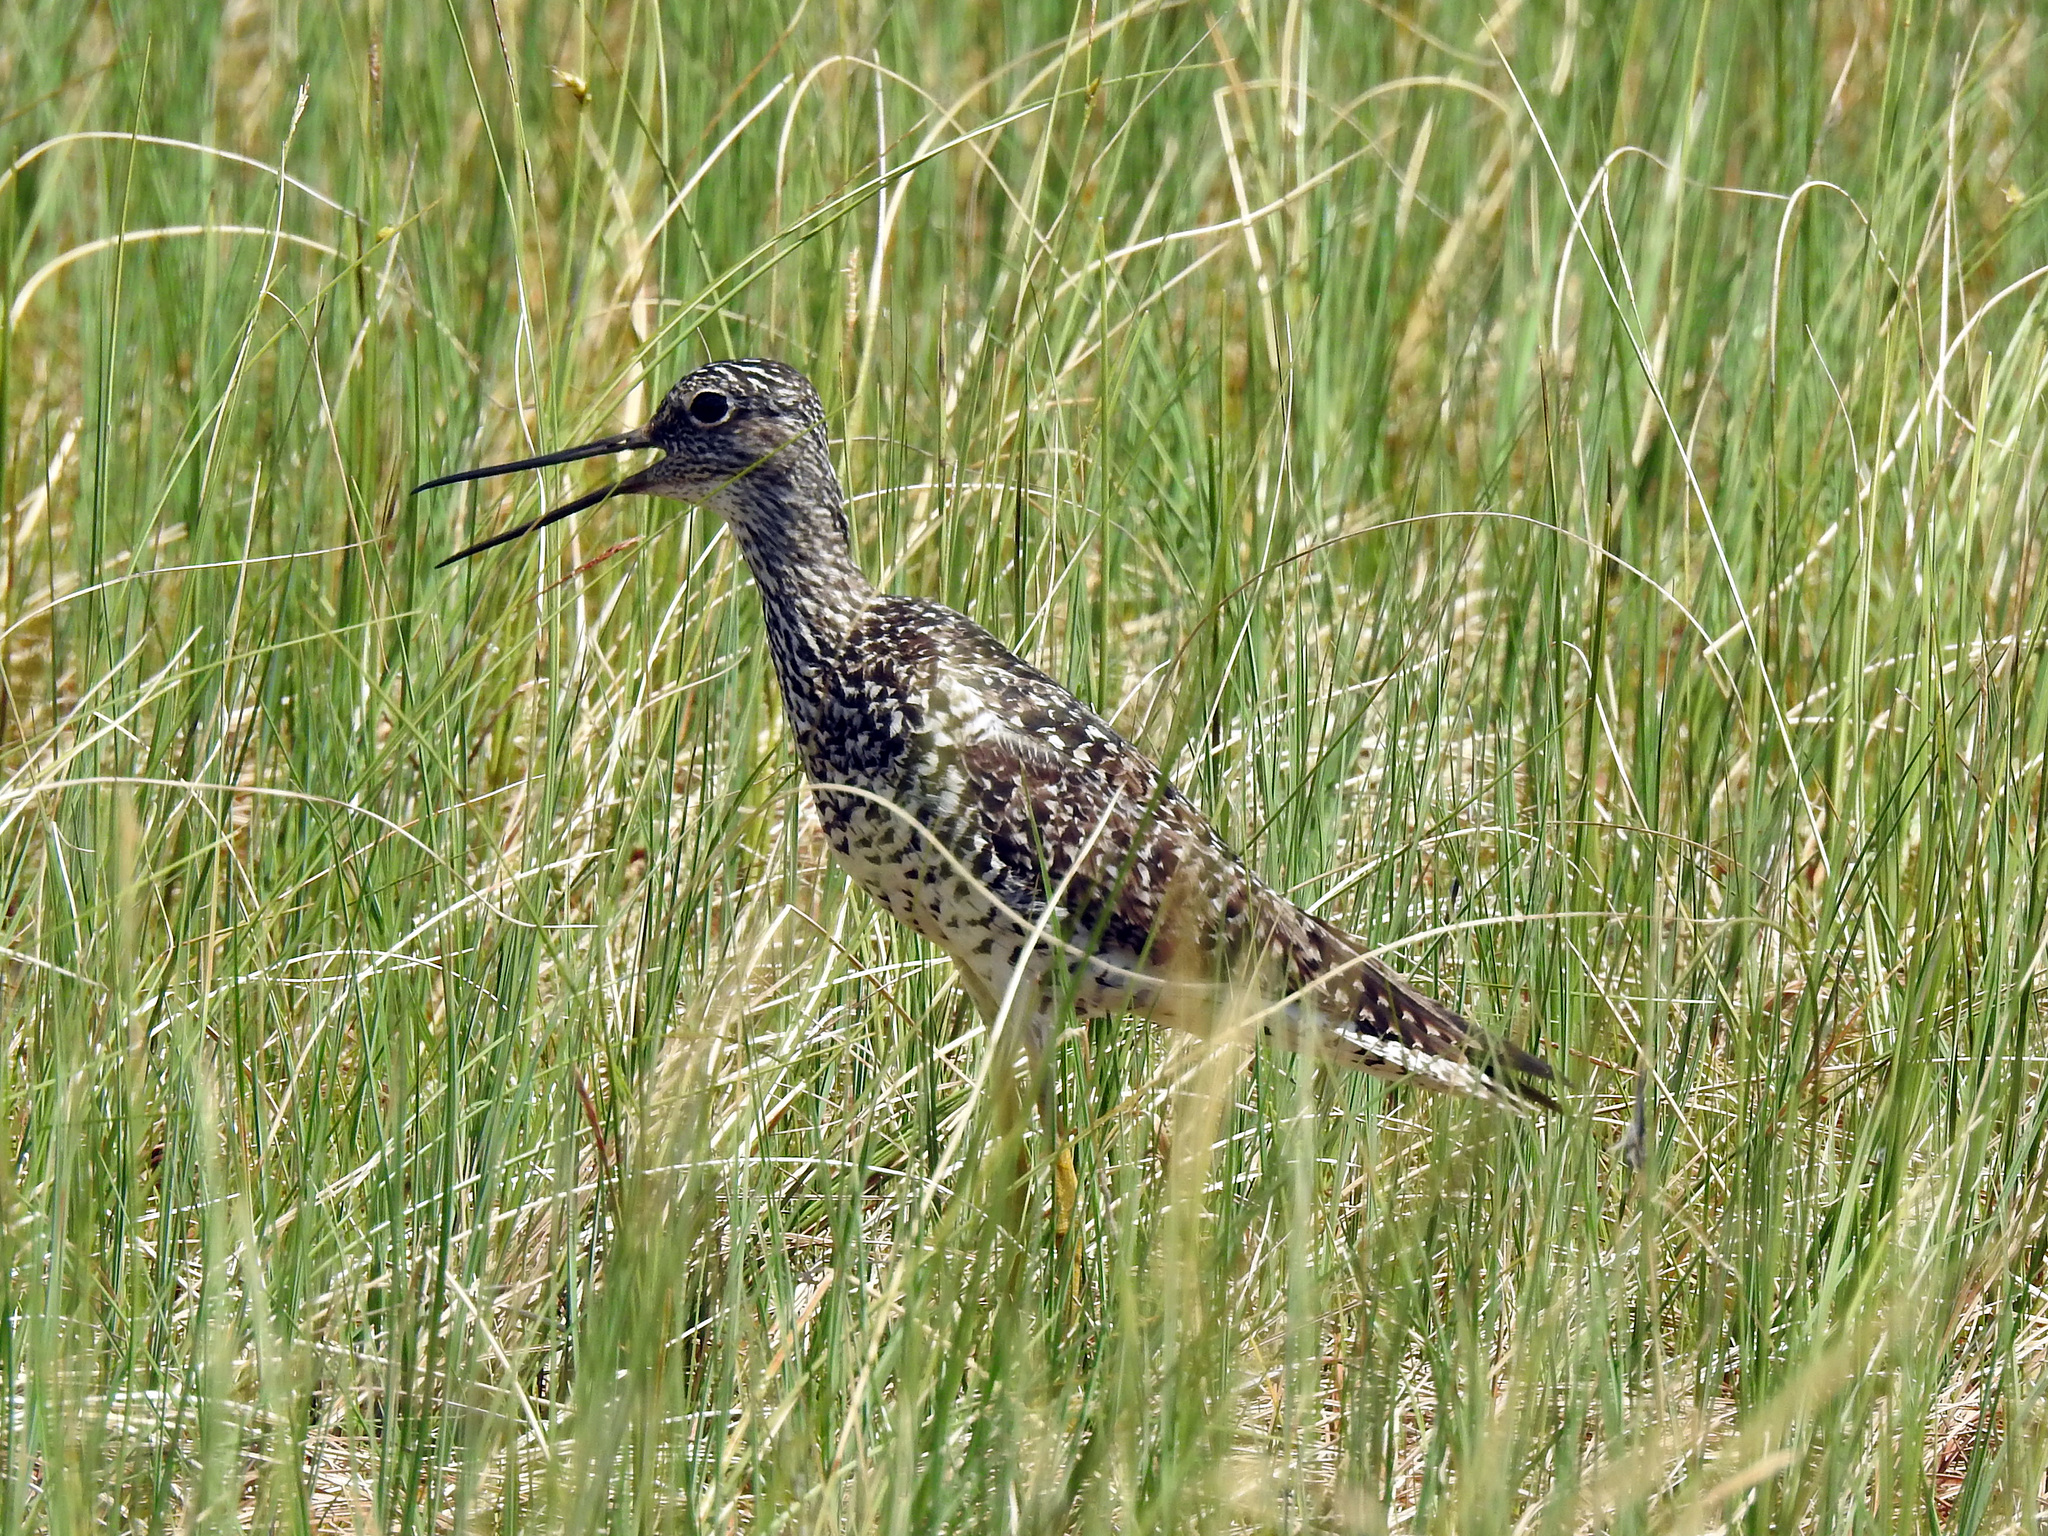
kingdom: Animalia
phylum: Chordata
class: Aves
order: Charadriiformes
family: Scolopacidae
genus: Tringa
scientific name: Tringa melanoleuca
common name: Greater yellowlegs
